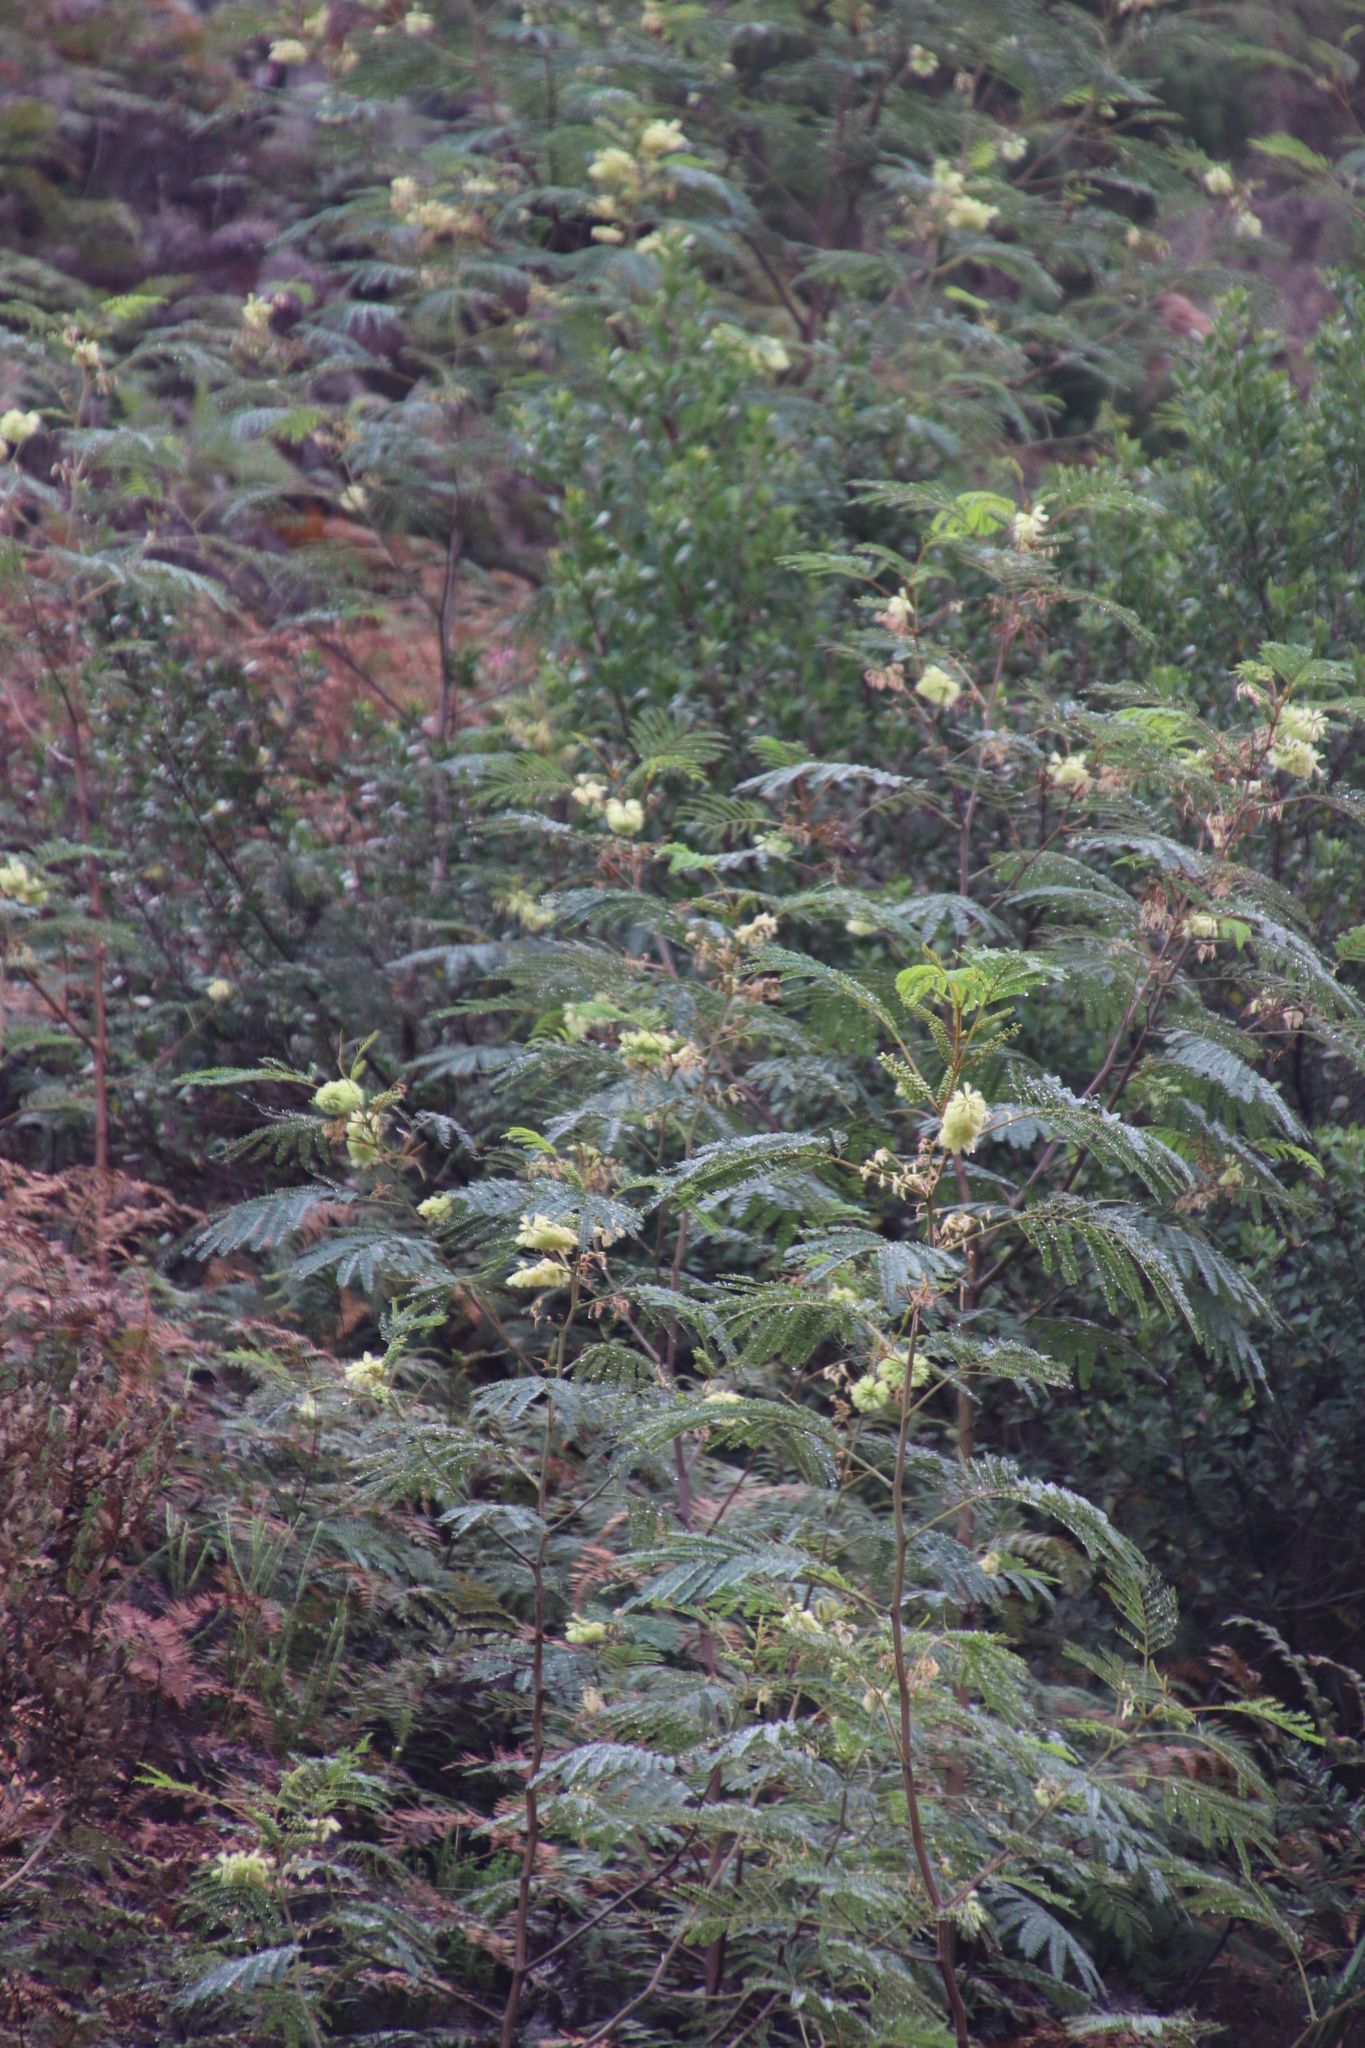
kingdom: Plantae
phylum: Tracheophyta
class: Magnoliopsida
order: Fabales
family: Fabaceae
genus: Paraserianthes
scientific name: Paraserianthes lophantha
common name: Plume albizia
